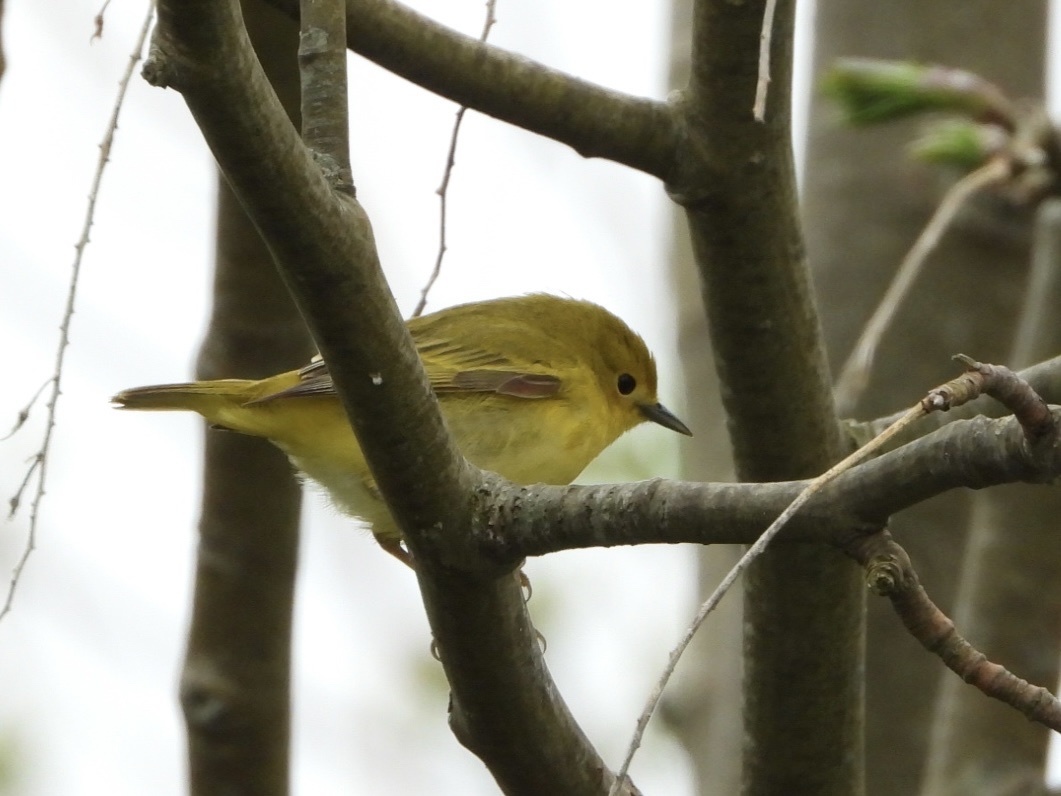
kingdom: Animalia
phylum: Chordata
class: Aves
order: Passeriformes
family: Parulidae
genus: Setophaga
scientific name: Setophaga petechia
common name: Yellow warbler
